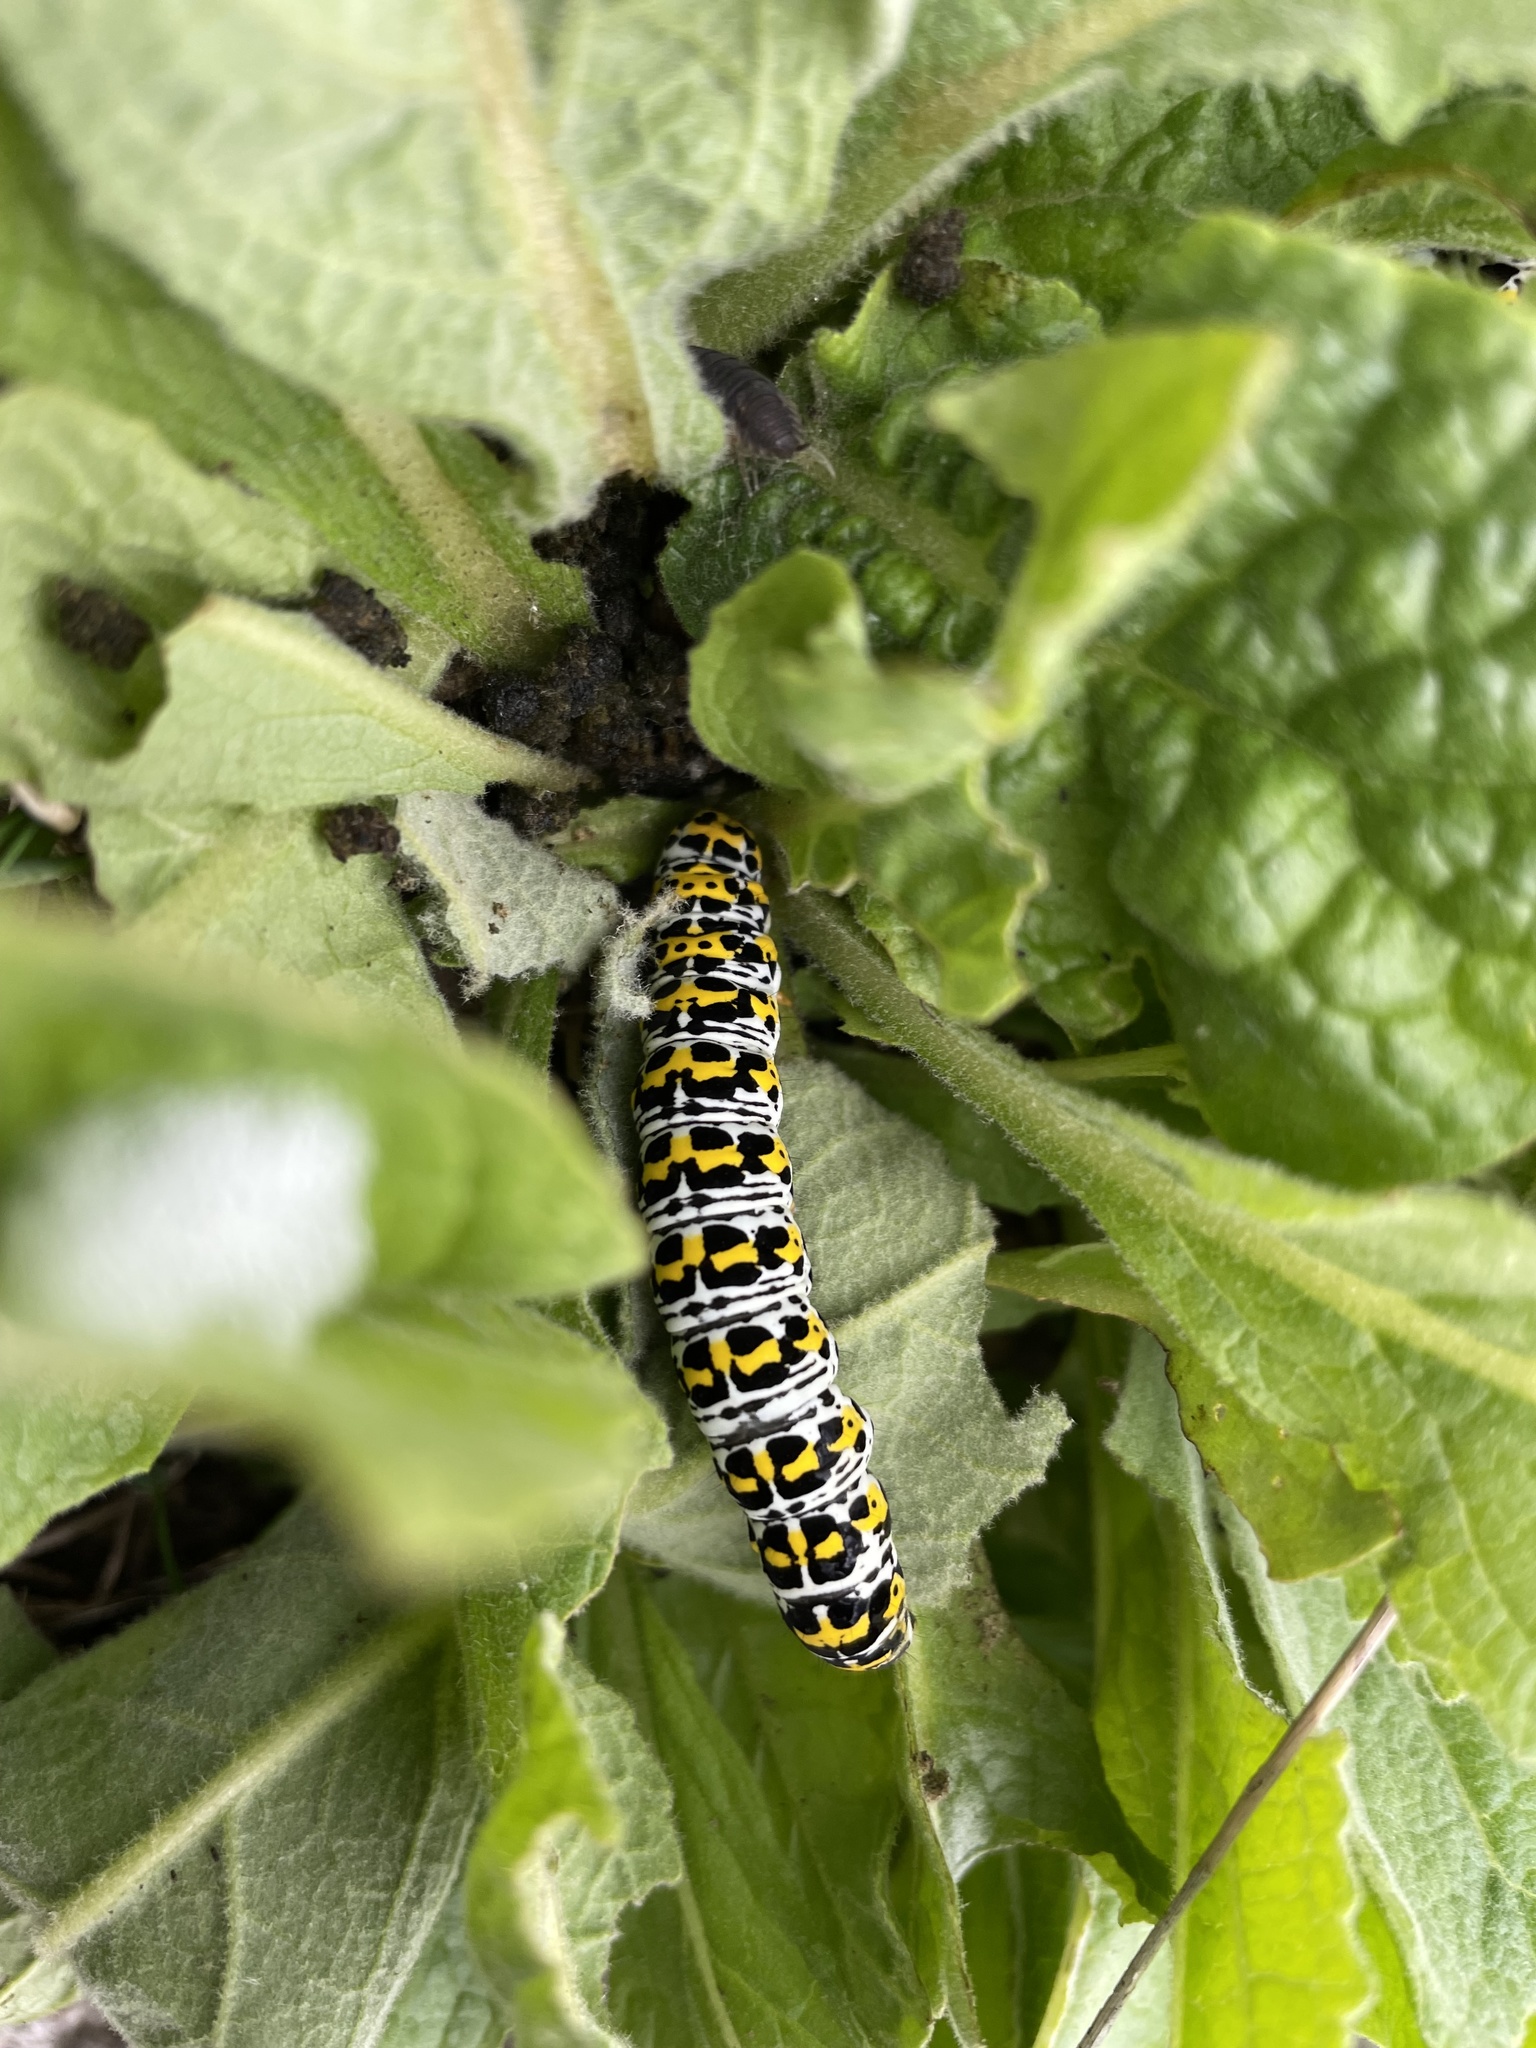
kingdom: Animalia
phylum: Arthropoda
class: Insecta
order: Lepidoptera
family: Noctuidae
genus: Cucullia
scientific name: Cucullia verbasci
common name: Mullein
